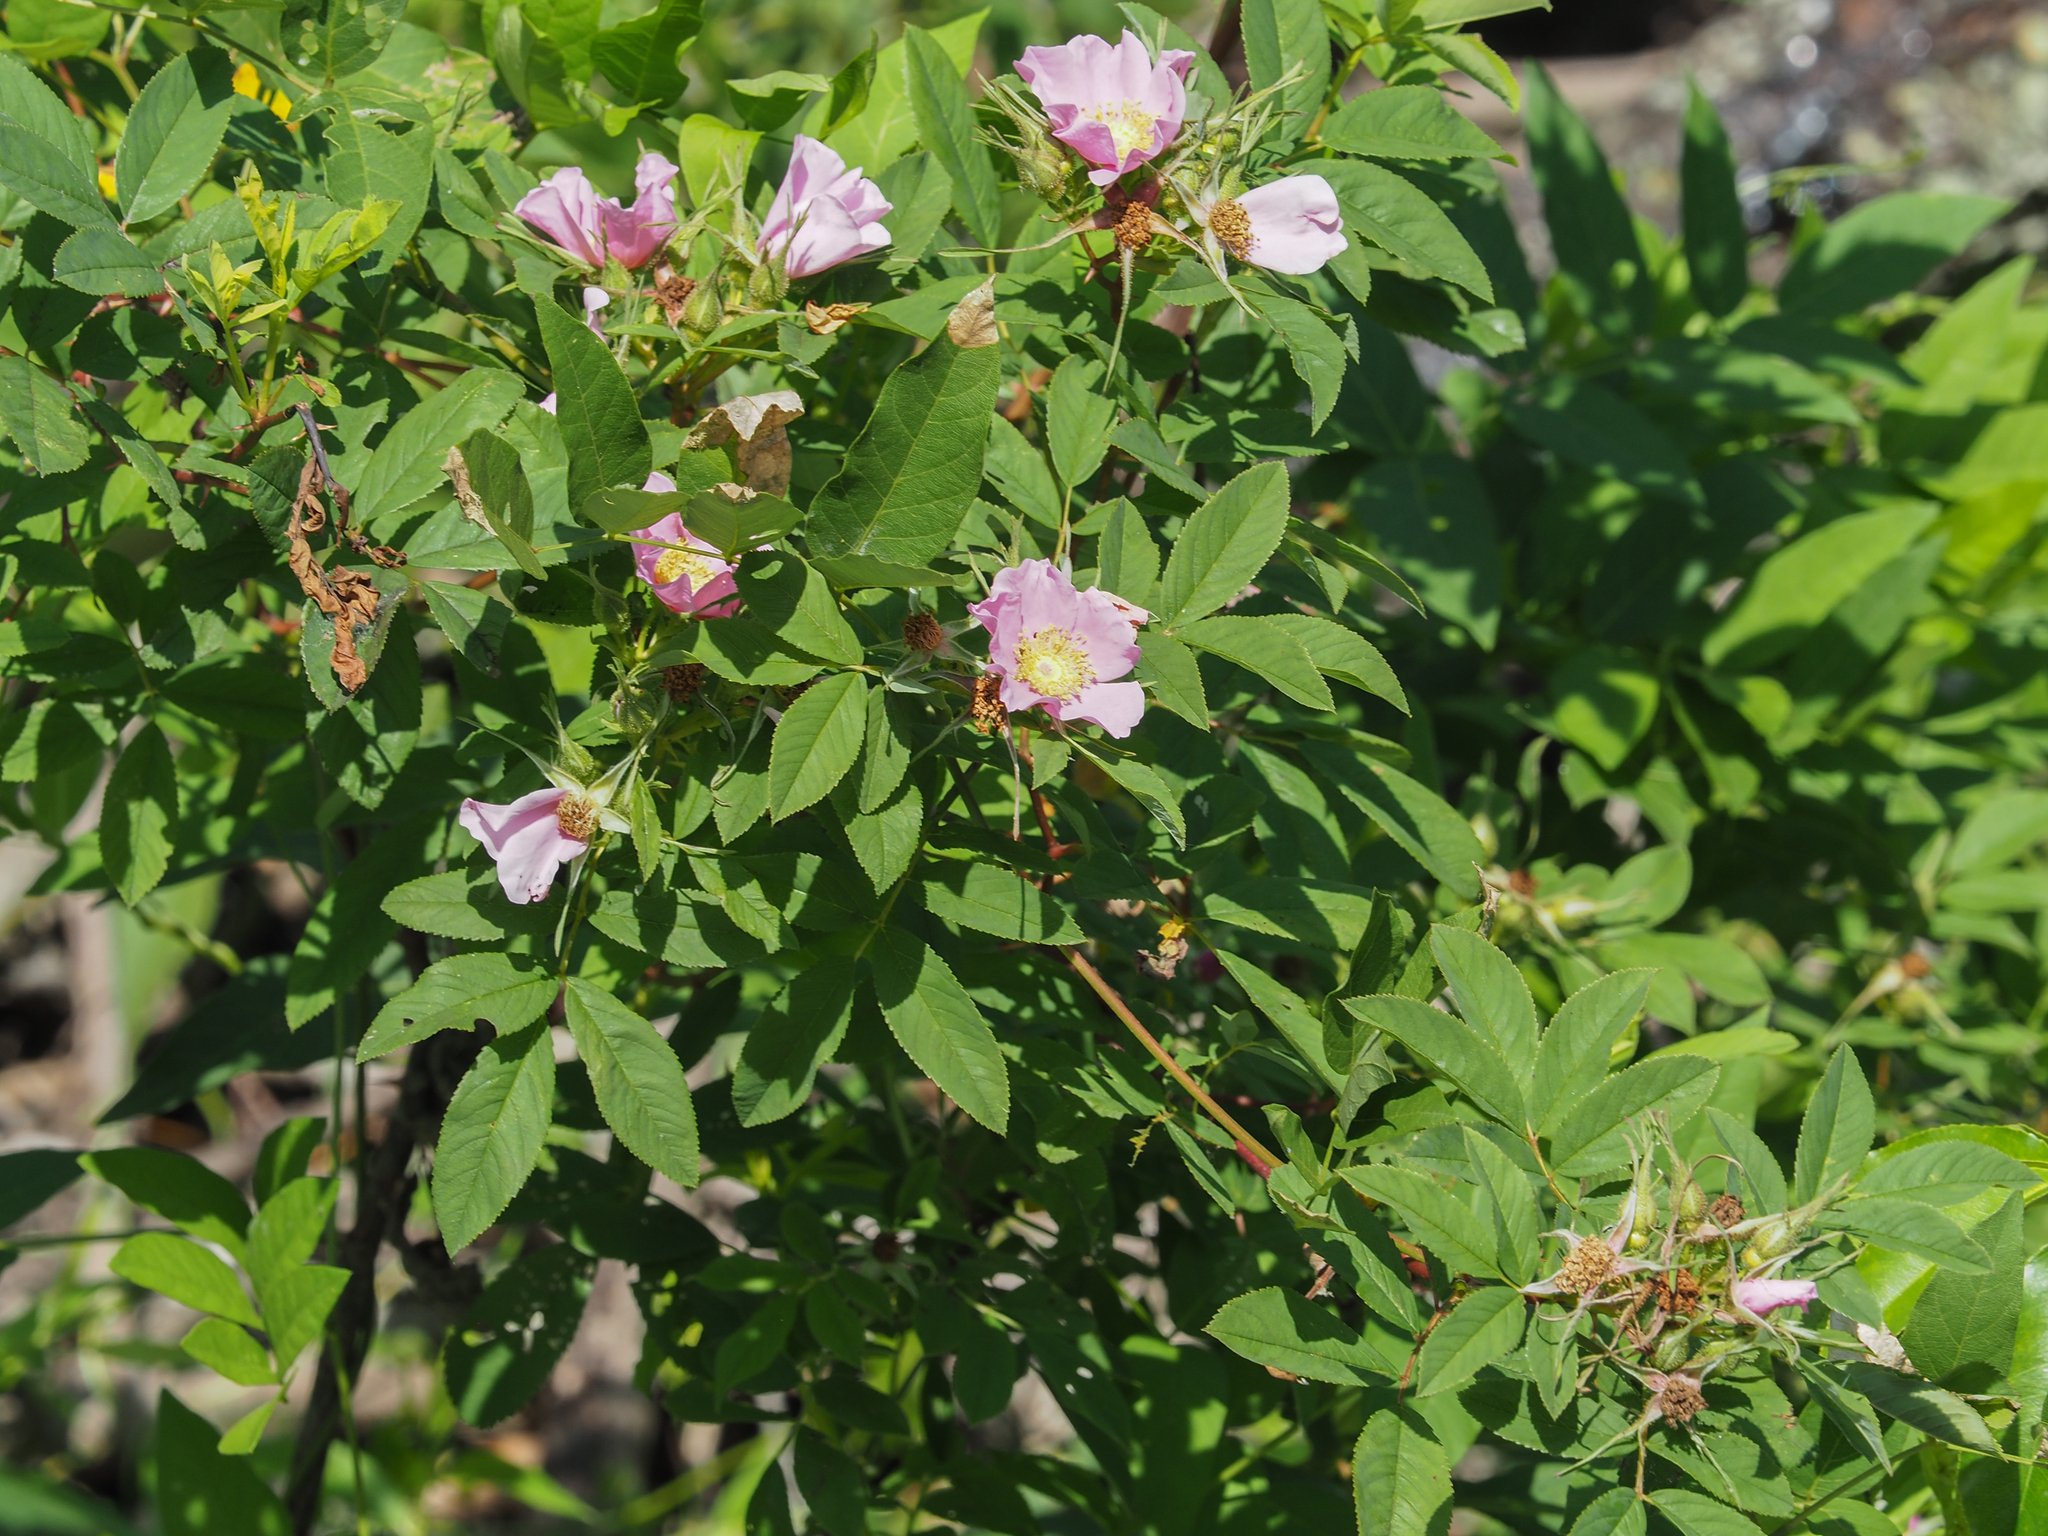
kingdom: Plantae
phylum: Tracheophyta
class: Magnoliopsida
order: Rosales
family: Rosaceae
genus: Rosa
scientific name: Rosa palustris
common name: Swamp rose
